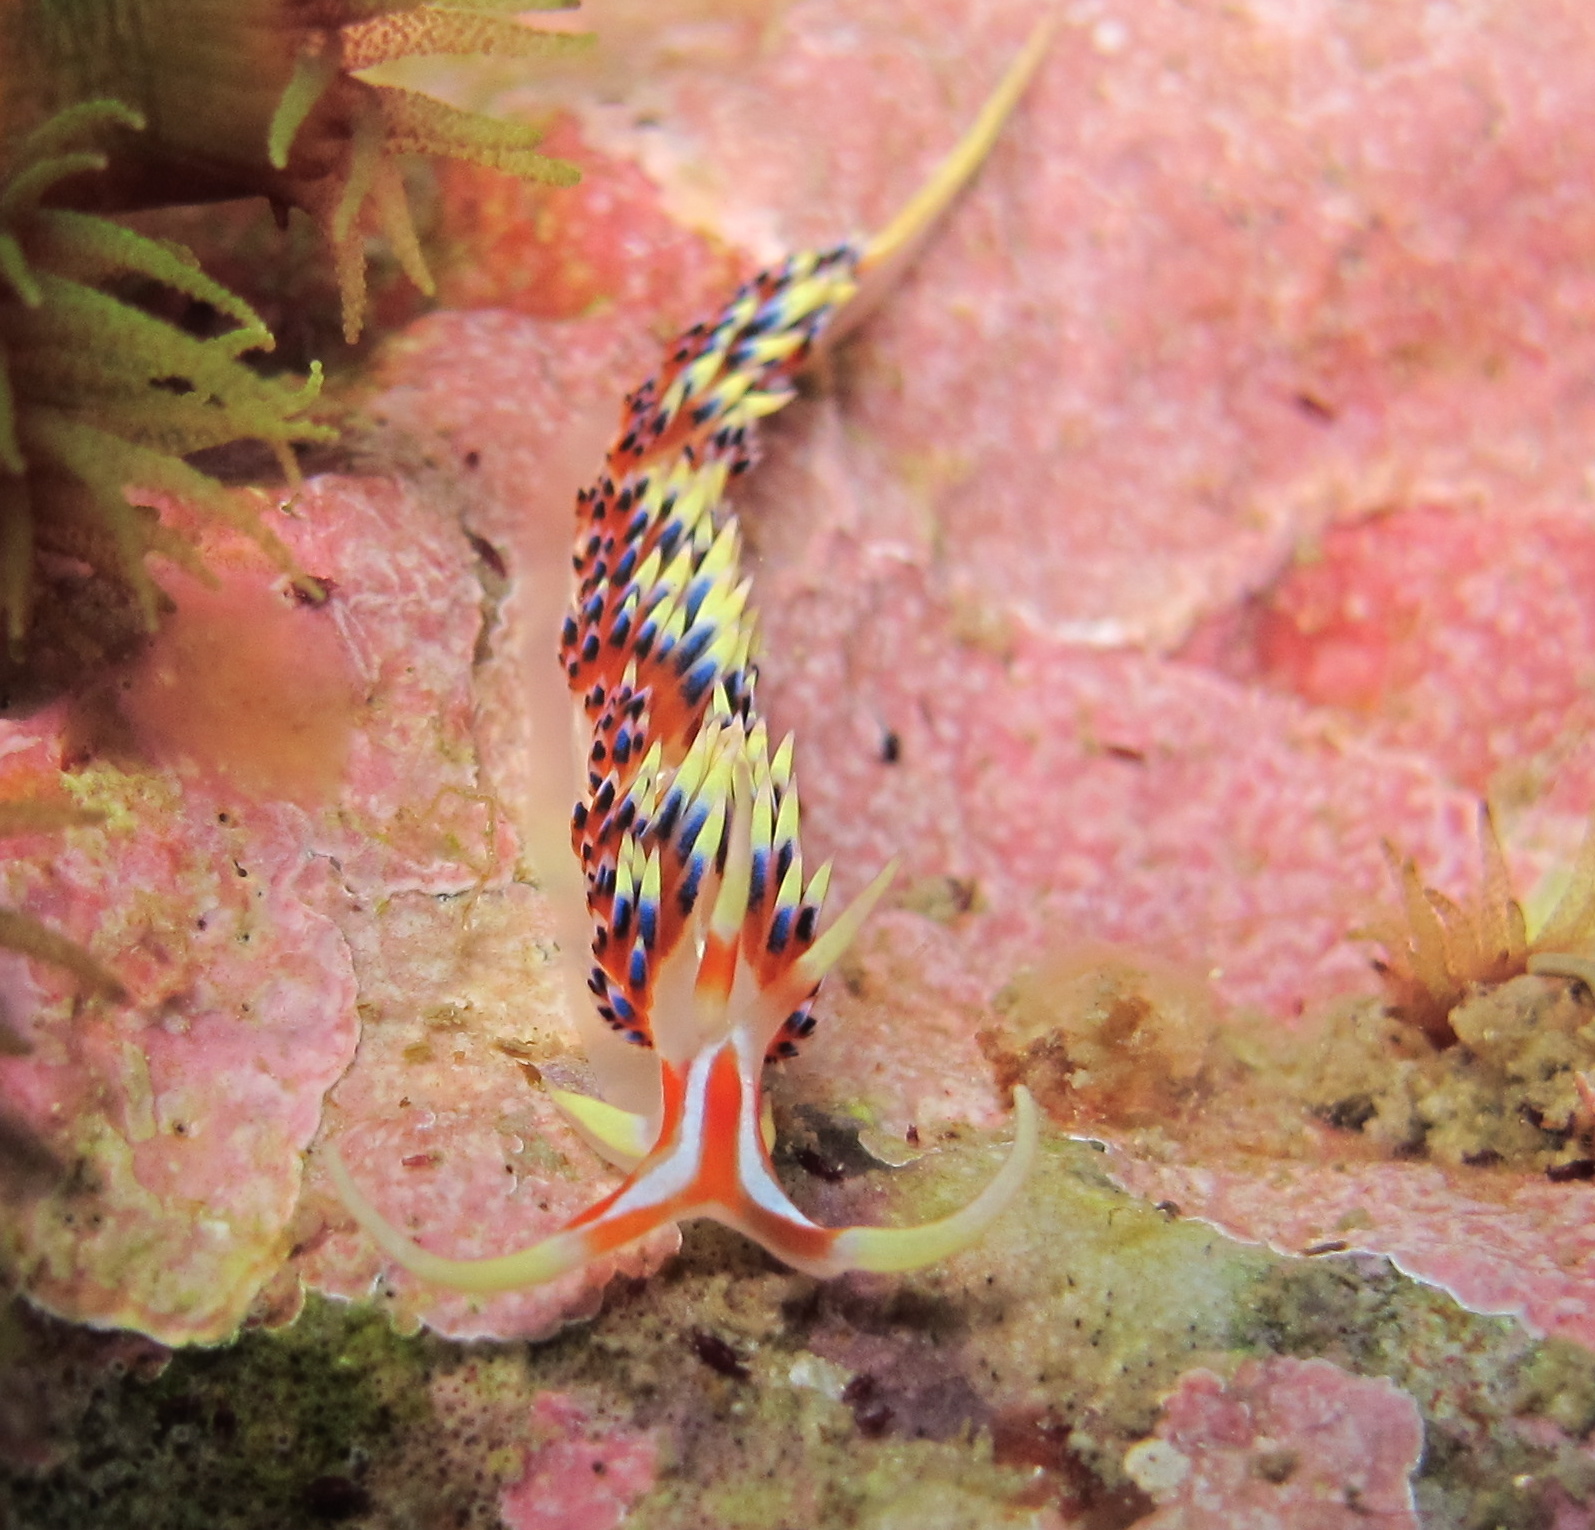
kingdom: Animalia
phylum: Mollusca
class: Gastropoda
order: Nudibranchia
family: Facelinidae
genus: Caloria
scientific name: Caloria indica
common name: Sea slug
